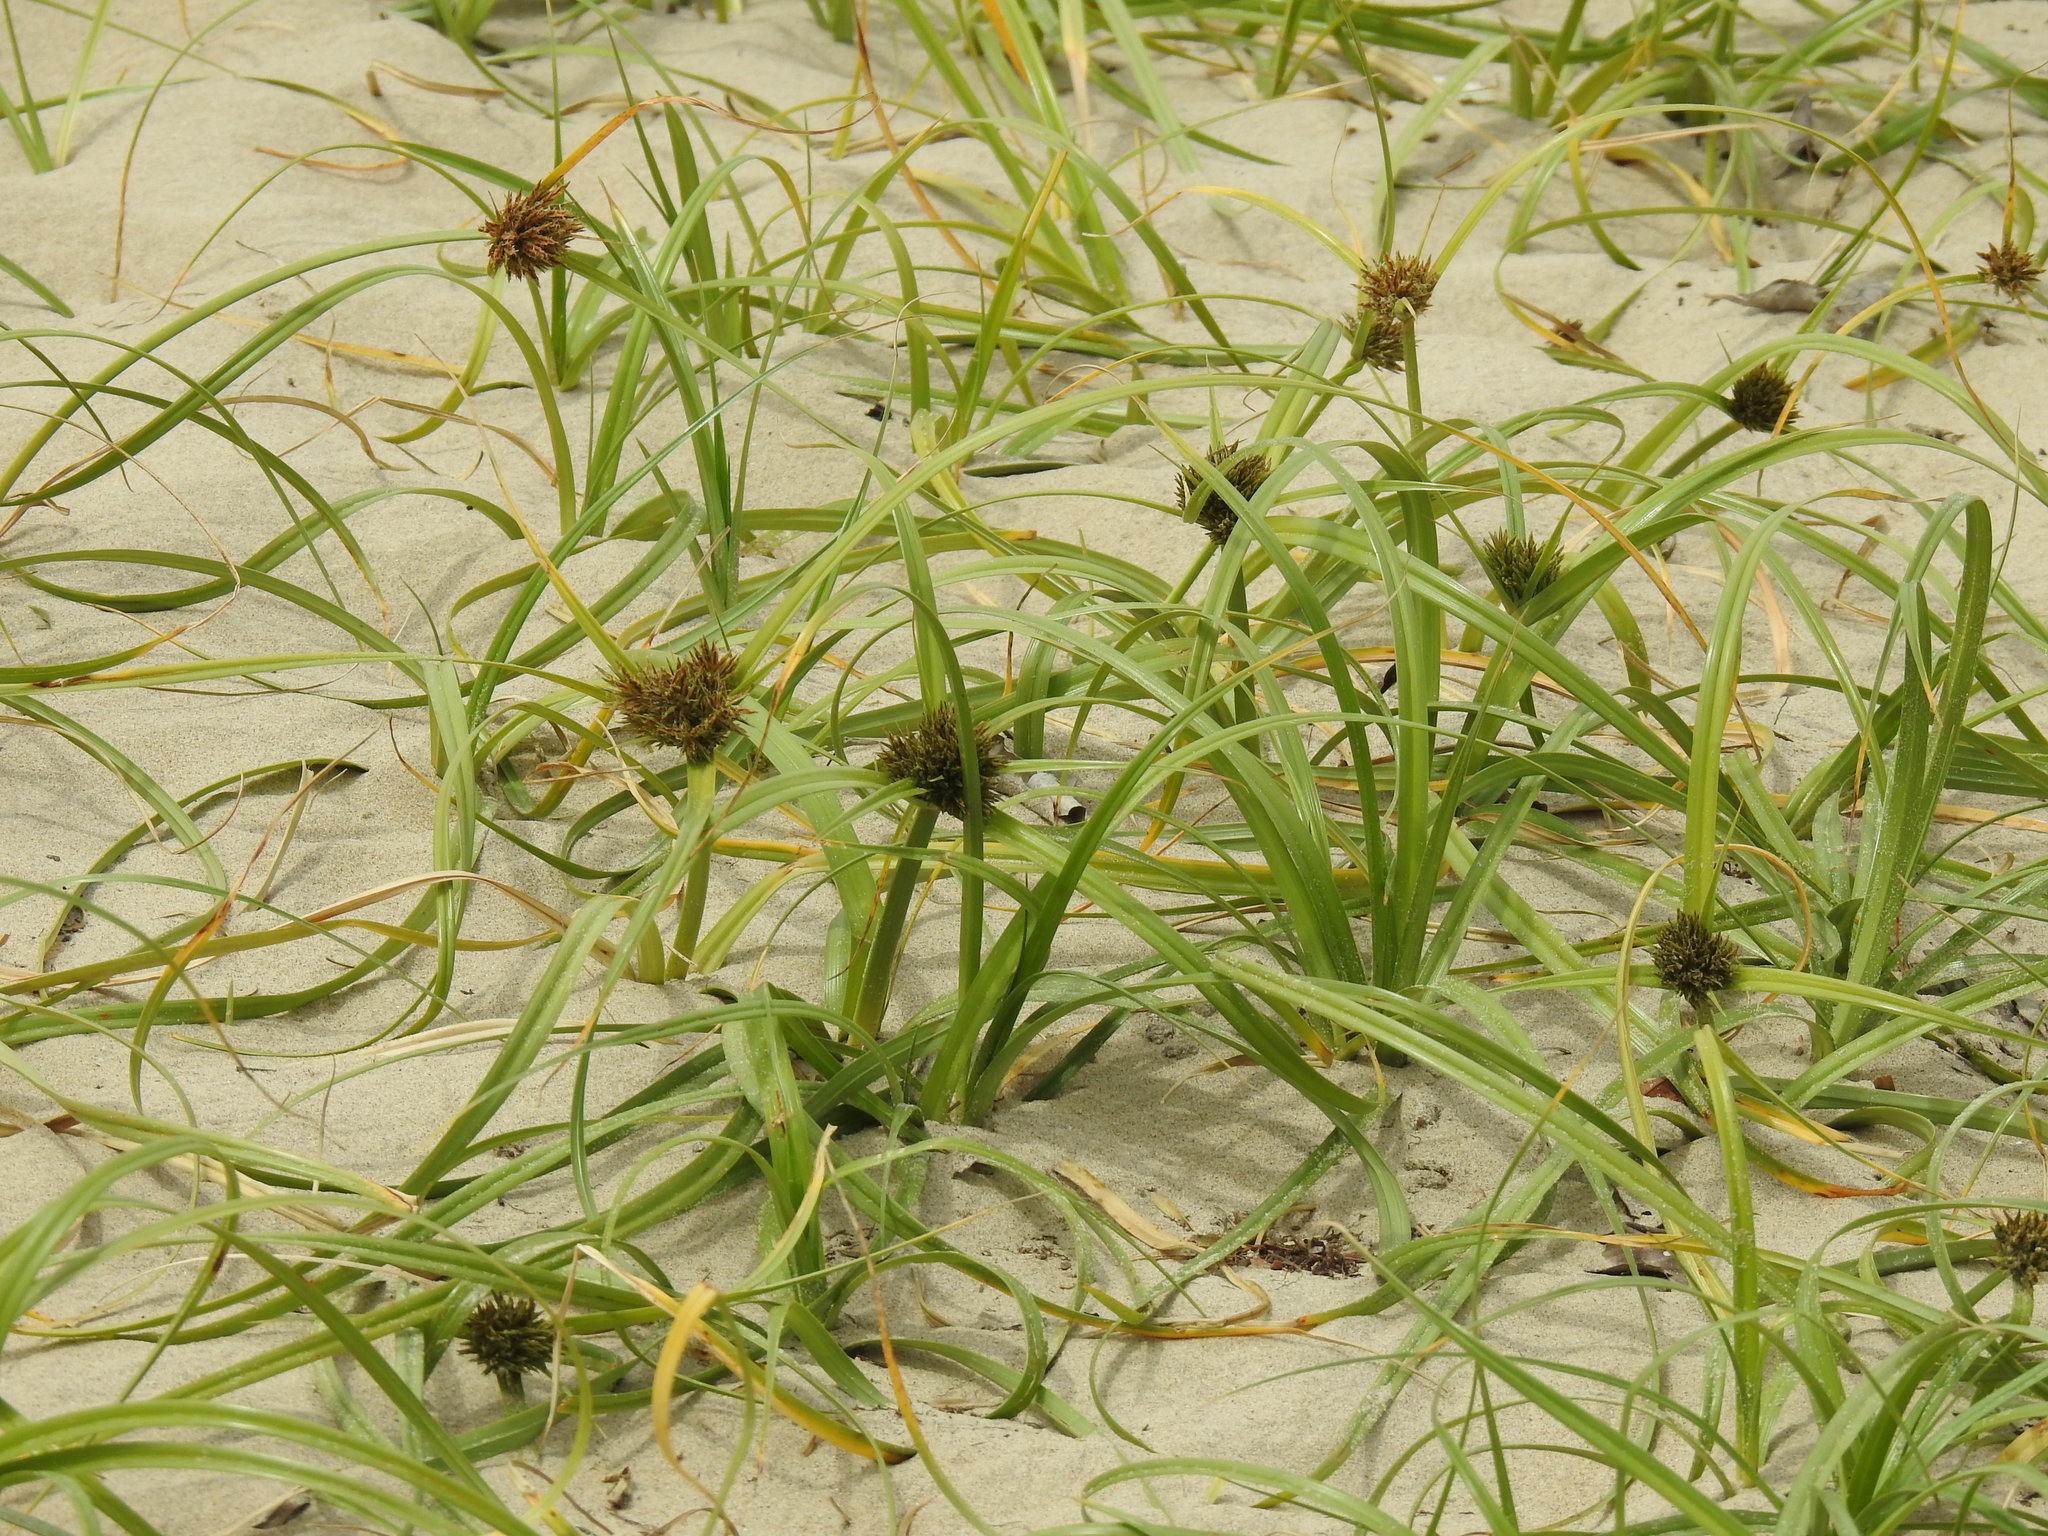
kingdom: Plantae
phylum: Tracheophyta
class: Liliopsida
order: Poales
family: Cyperaceae
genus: Cyperus
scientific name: Cyperus crassipes
